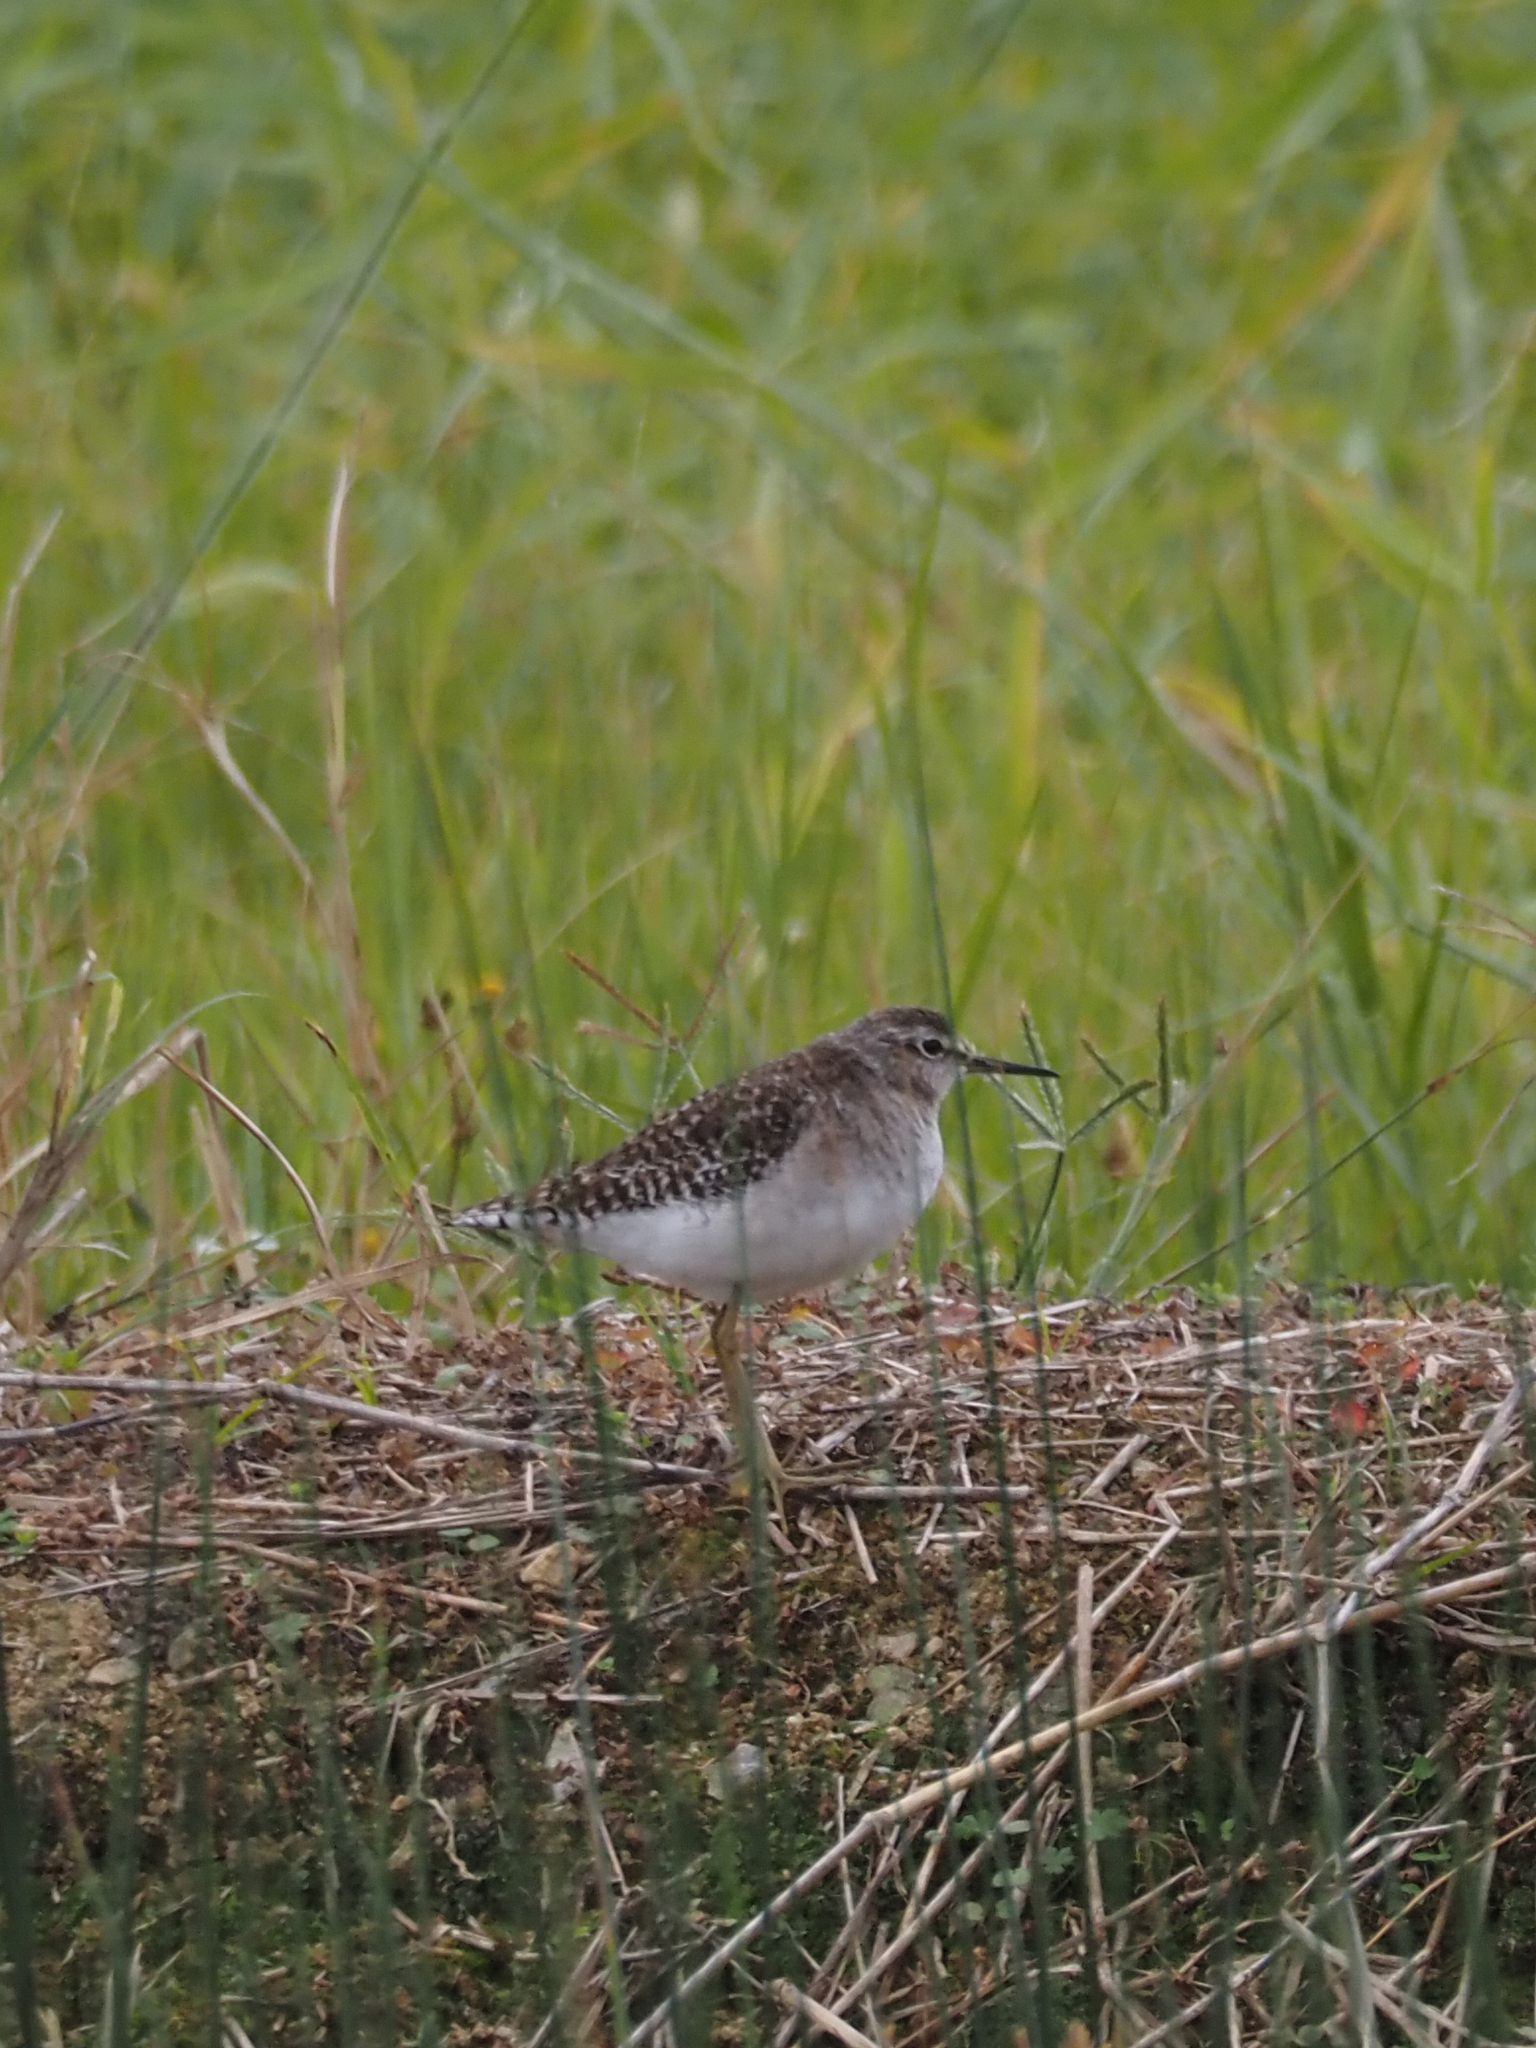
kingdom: Animalia
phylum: Chordata
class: Aves
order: Charadriiformes
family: Scolopacidae
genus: Tringa
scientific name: Tringa glareola
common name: Wood sandpiper
